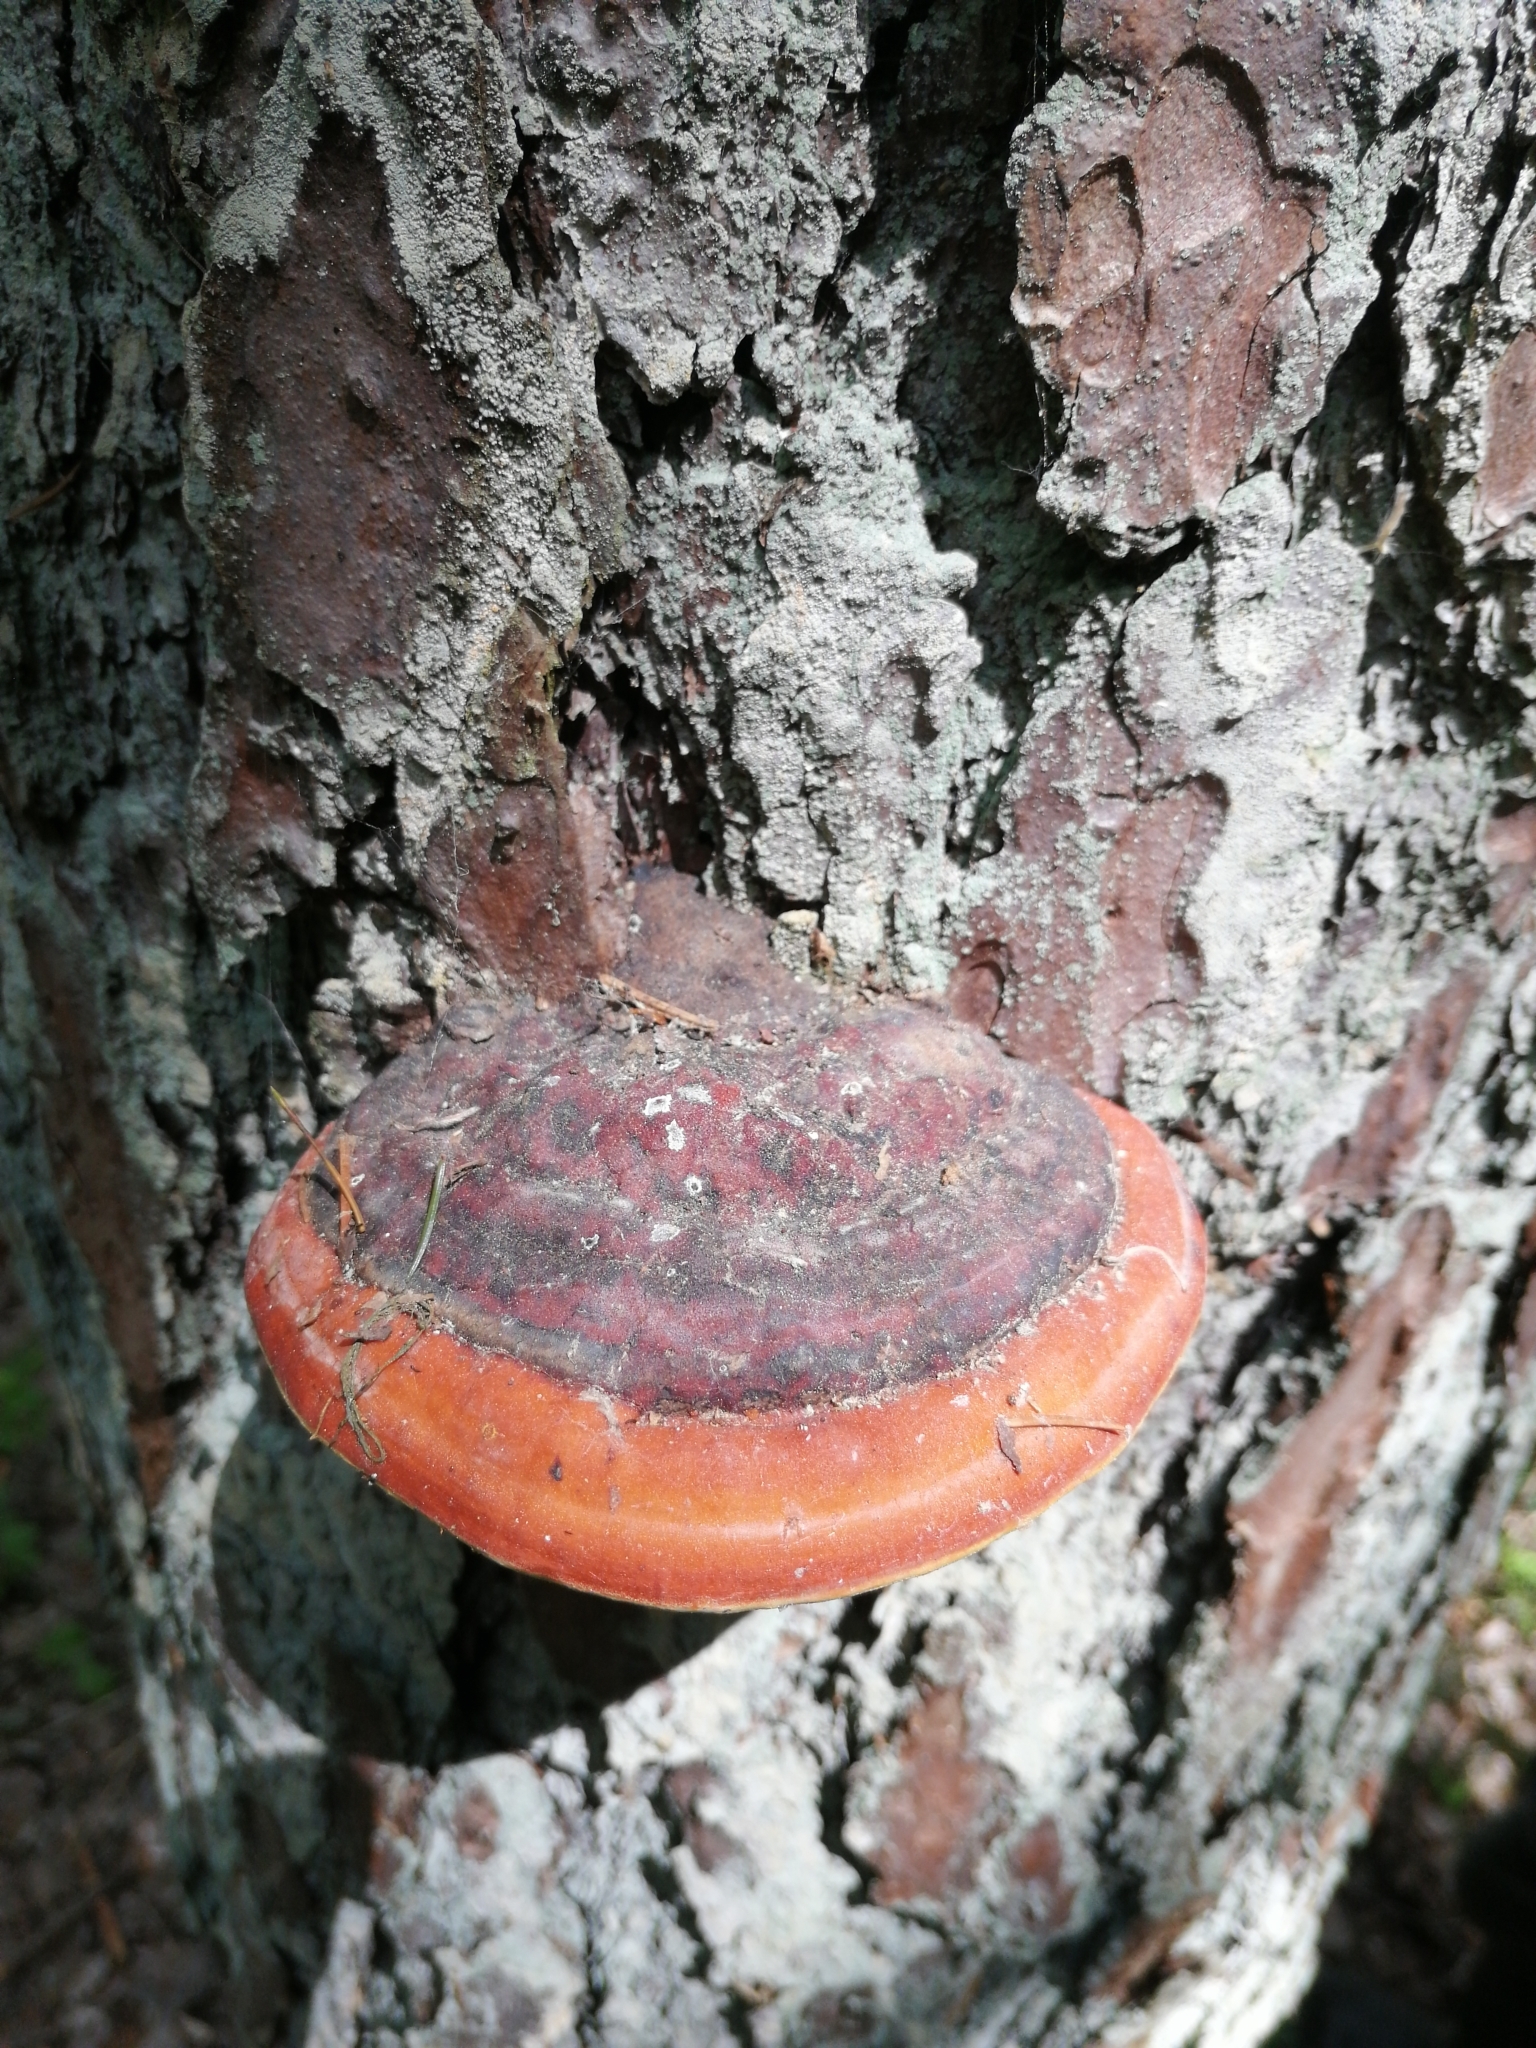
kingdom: Fungi
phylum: Basidiomycota
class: Agaricomycetes
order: Polyporales
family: Fomitopsidaceae
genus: Fomitopsis
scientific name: Fomitopsis pinicola
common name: Red-belted bracket
